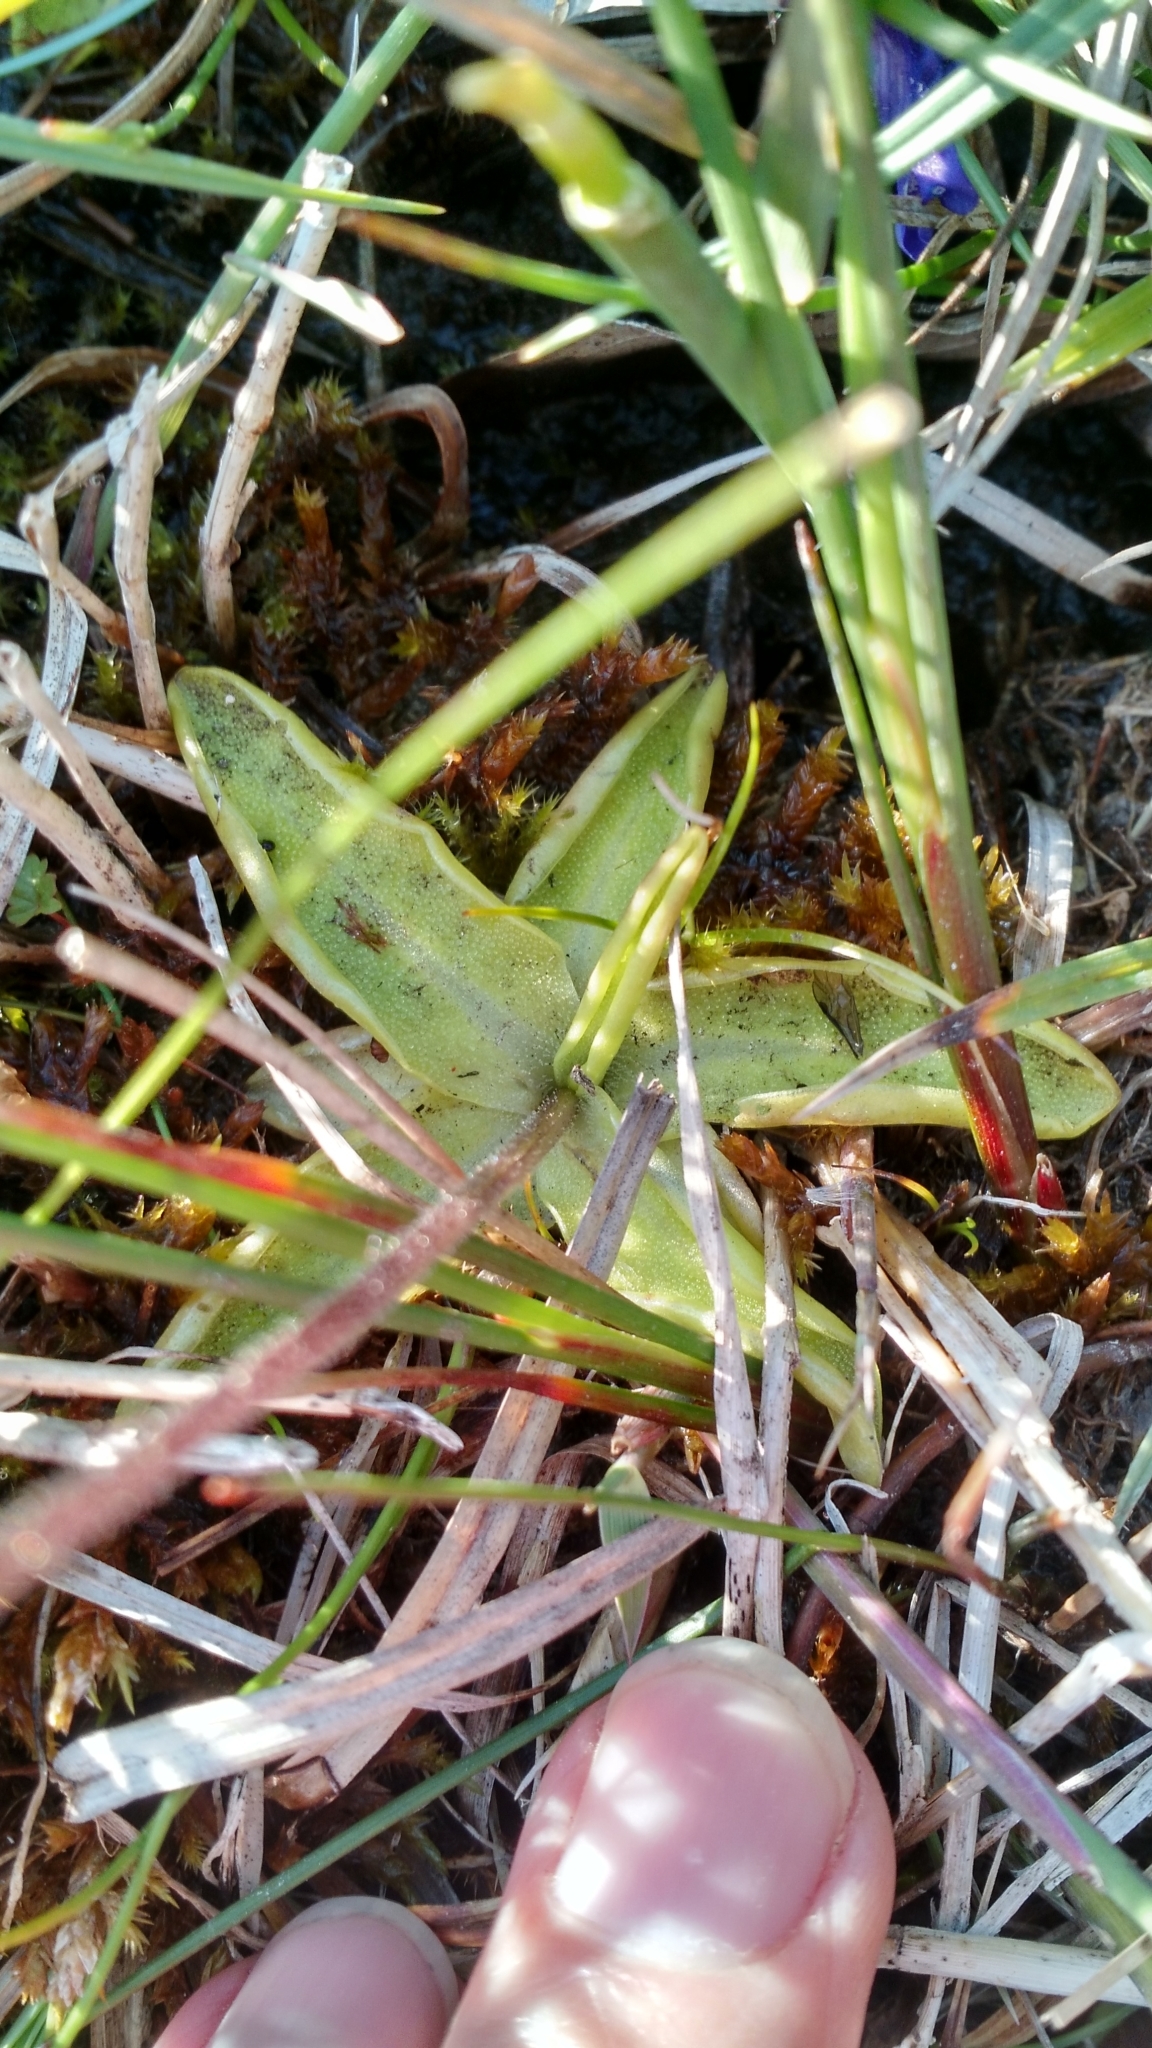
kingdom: Plantae
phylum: Tracheophyta
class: Magnoliopsida
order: Lamiales
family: Lentibulariaceae
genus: Pinguicula
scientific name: Pinguicula vulgaris
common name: Common butterwort
